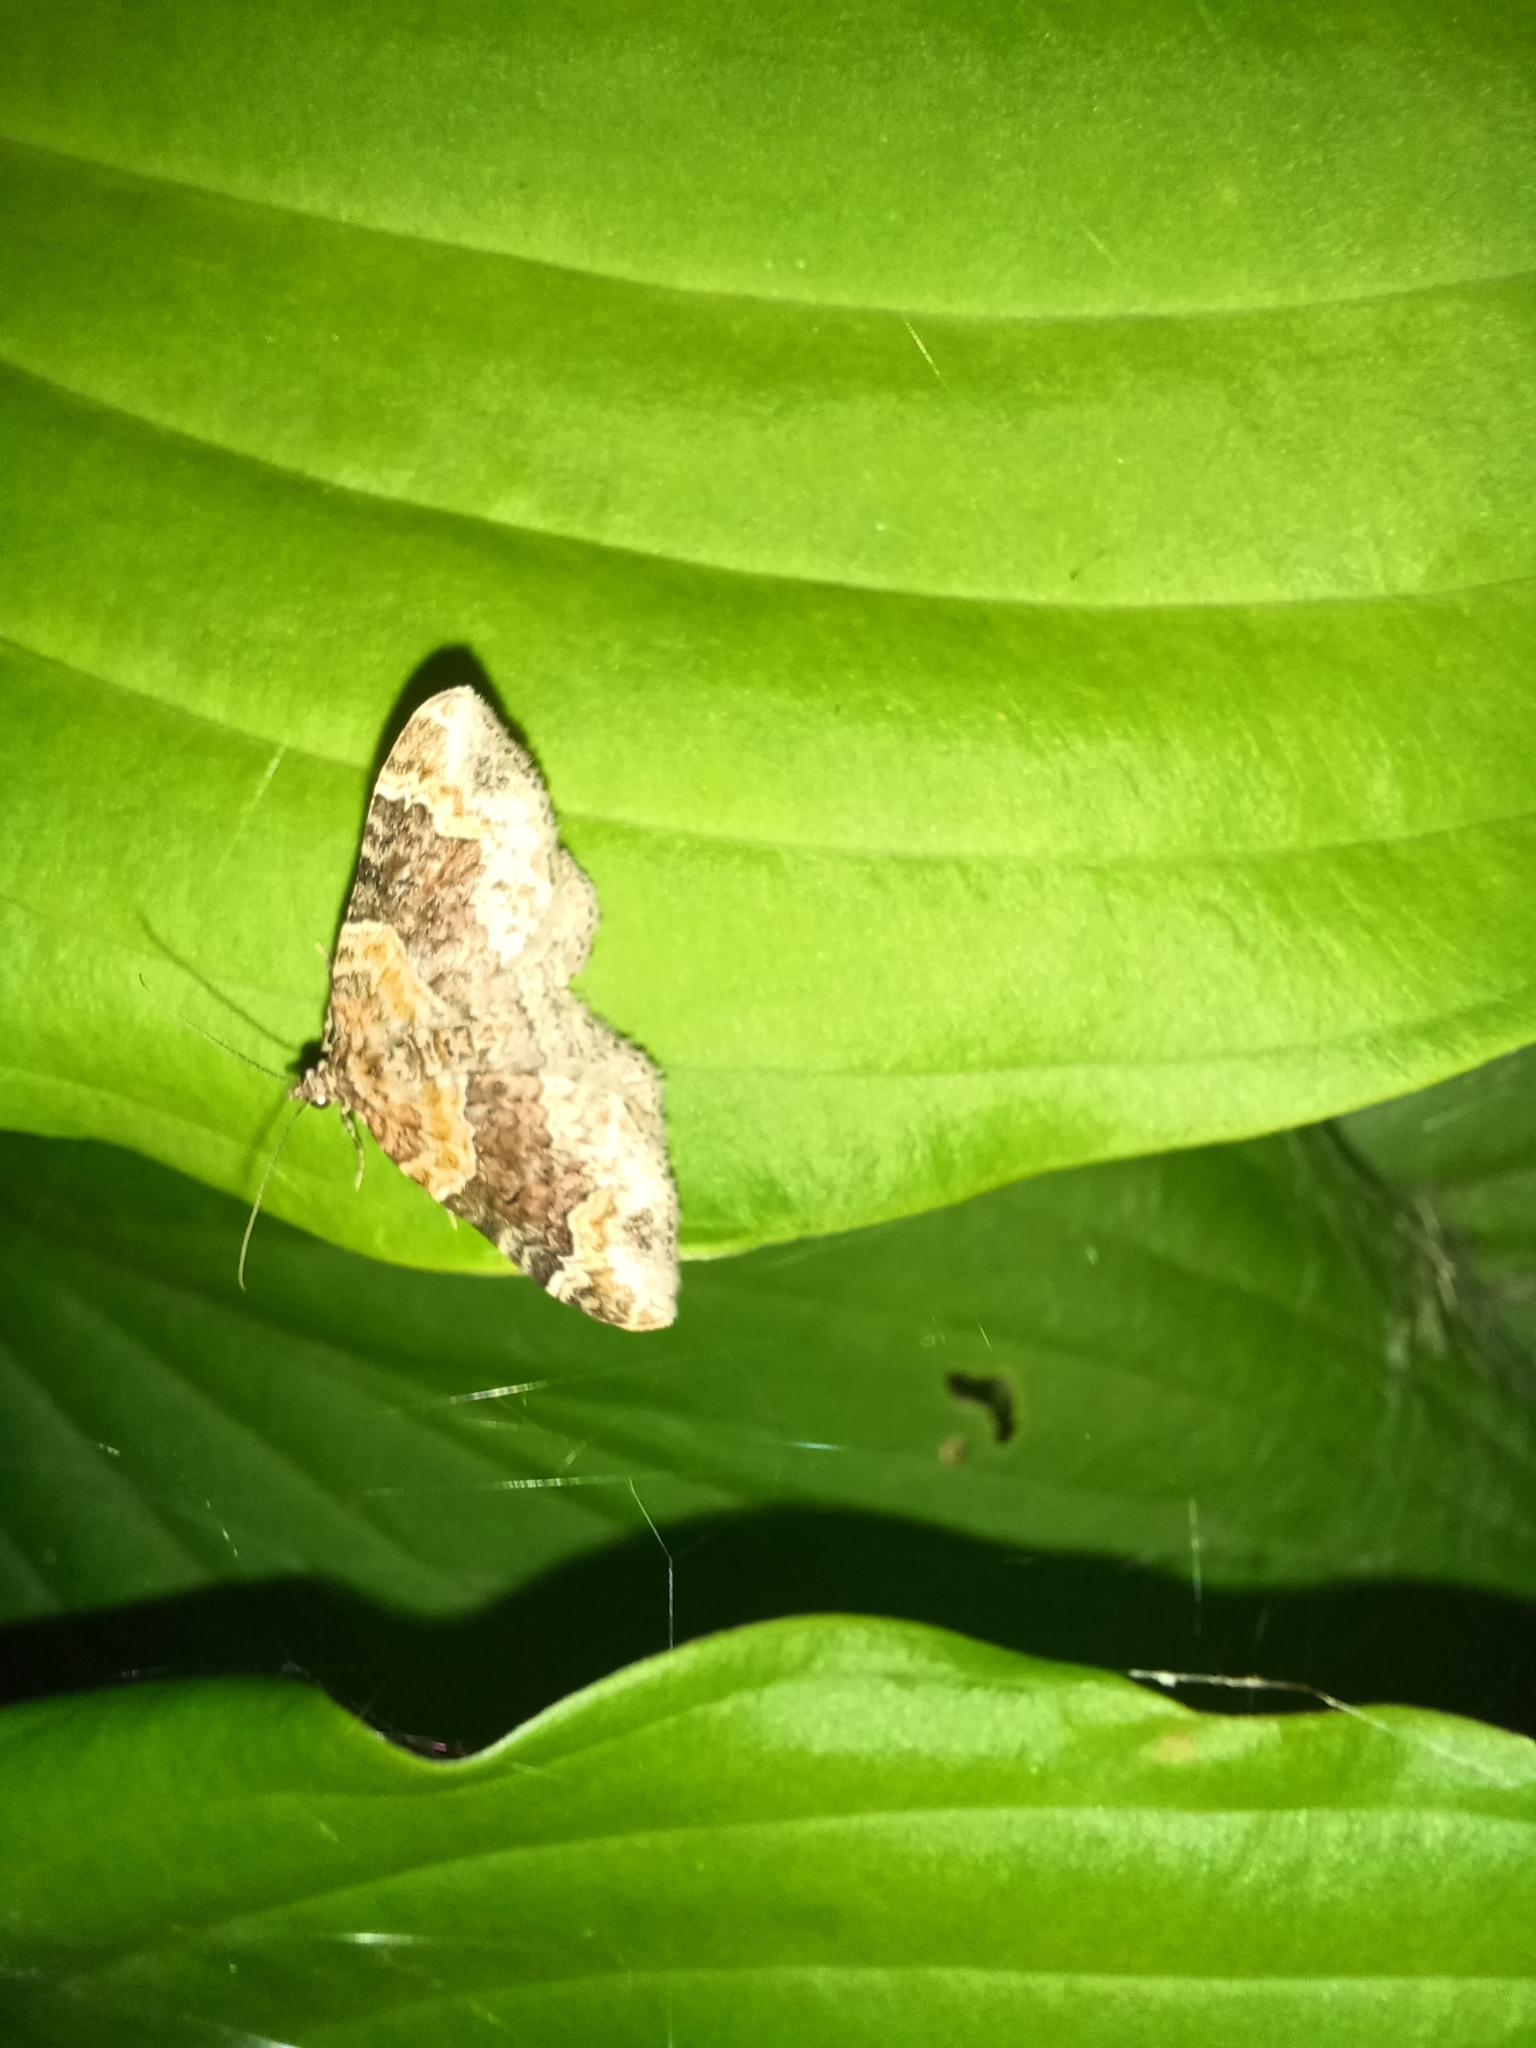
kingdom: Animalia
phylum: Arthropoda
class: Insecta
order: Lepidoptera
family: Geometridae
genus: Xanthorhoe
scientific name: Xanthorhoe ferrugata
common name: Dark-barred twin-spot carpet
